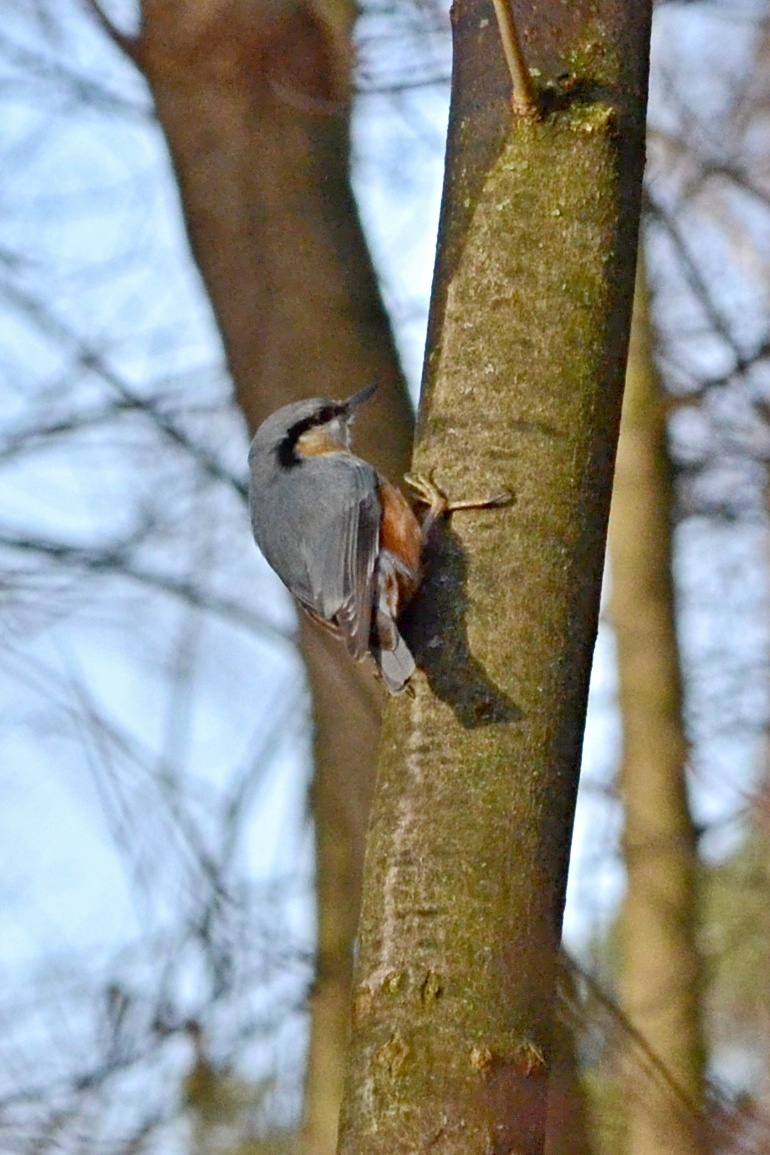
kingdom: Animalia
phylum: Chordata
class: Aves
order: Passeriformes
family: Sittidae
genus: Sitta
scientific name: Sitta europaea
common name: Eurasian nuthatch
